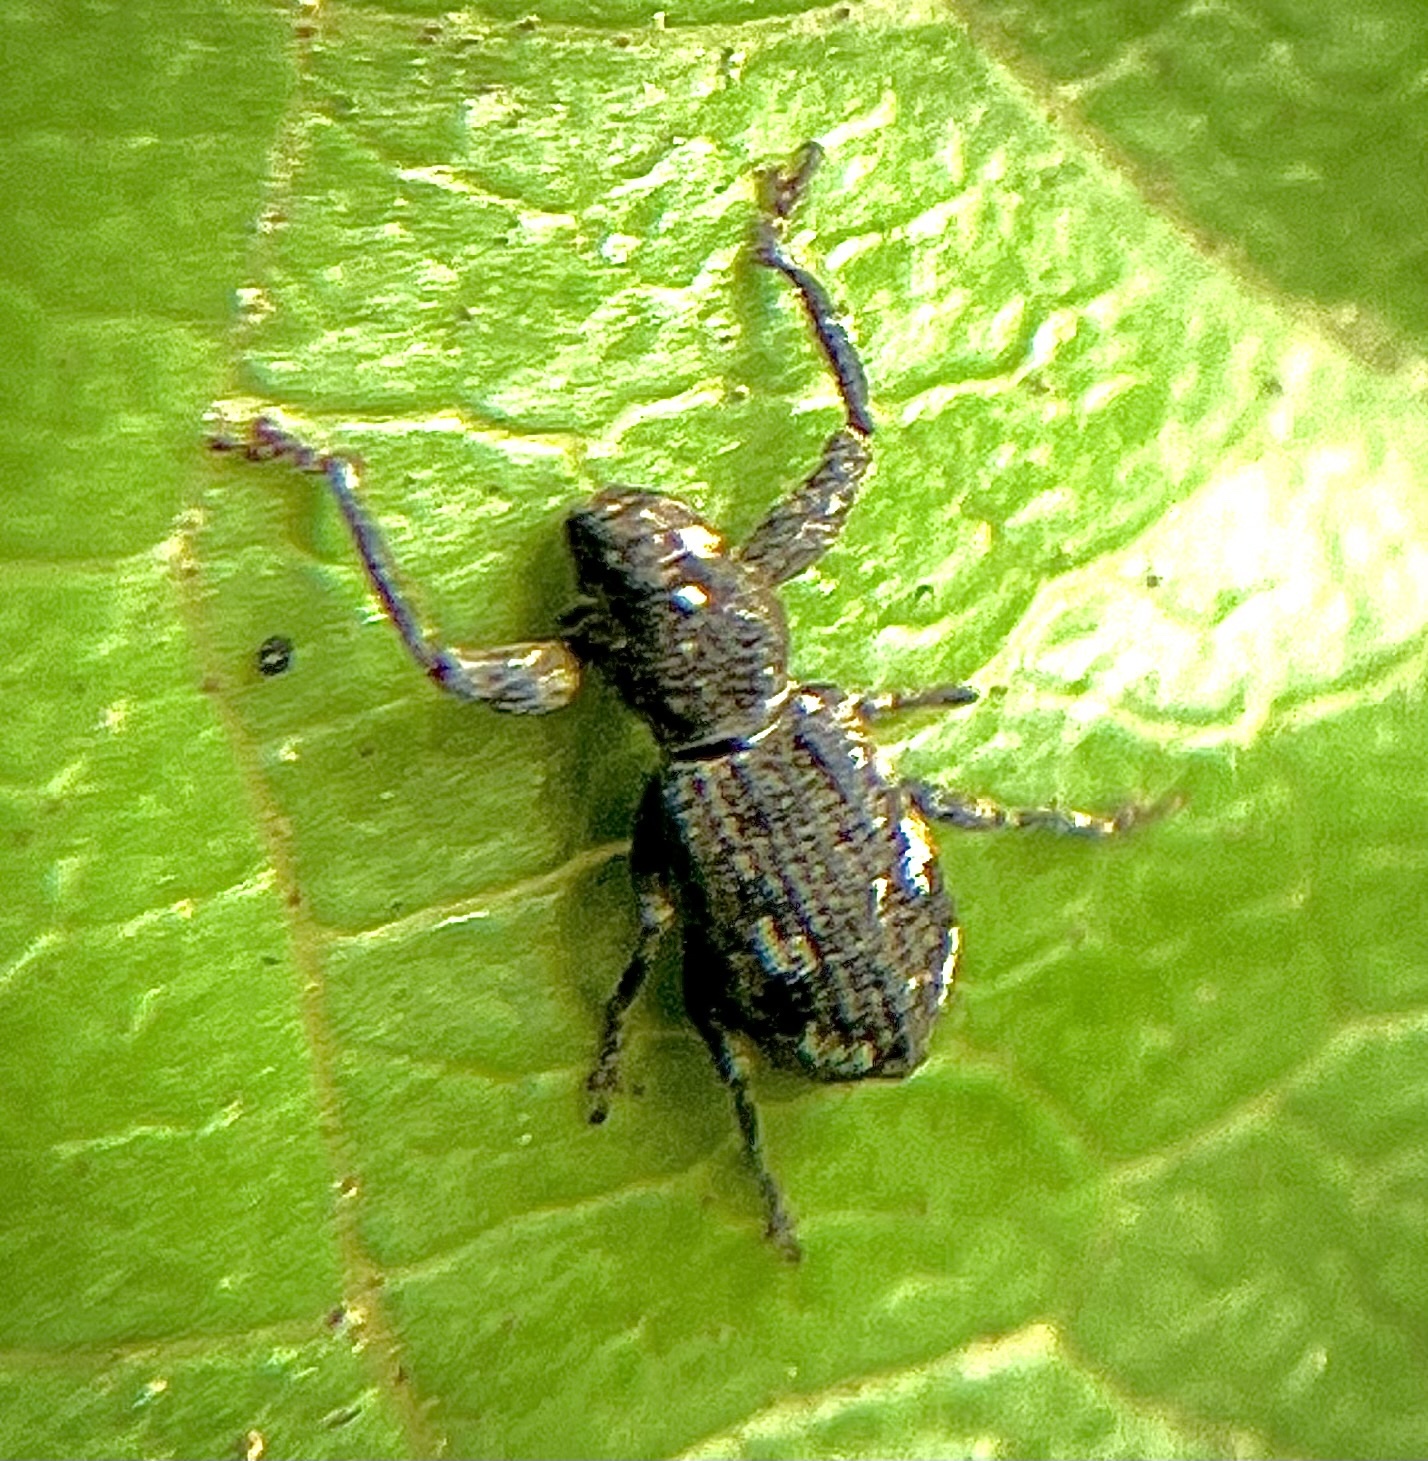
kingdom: Animalia
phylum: Arthropoda
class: Insecta
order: Coleoptera
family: Curculionidae
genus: Pandeleteius
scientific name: Pandeleteius hilaris
